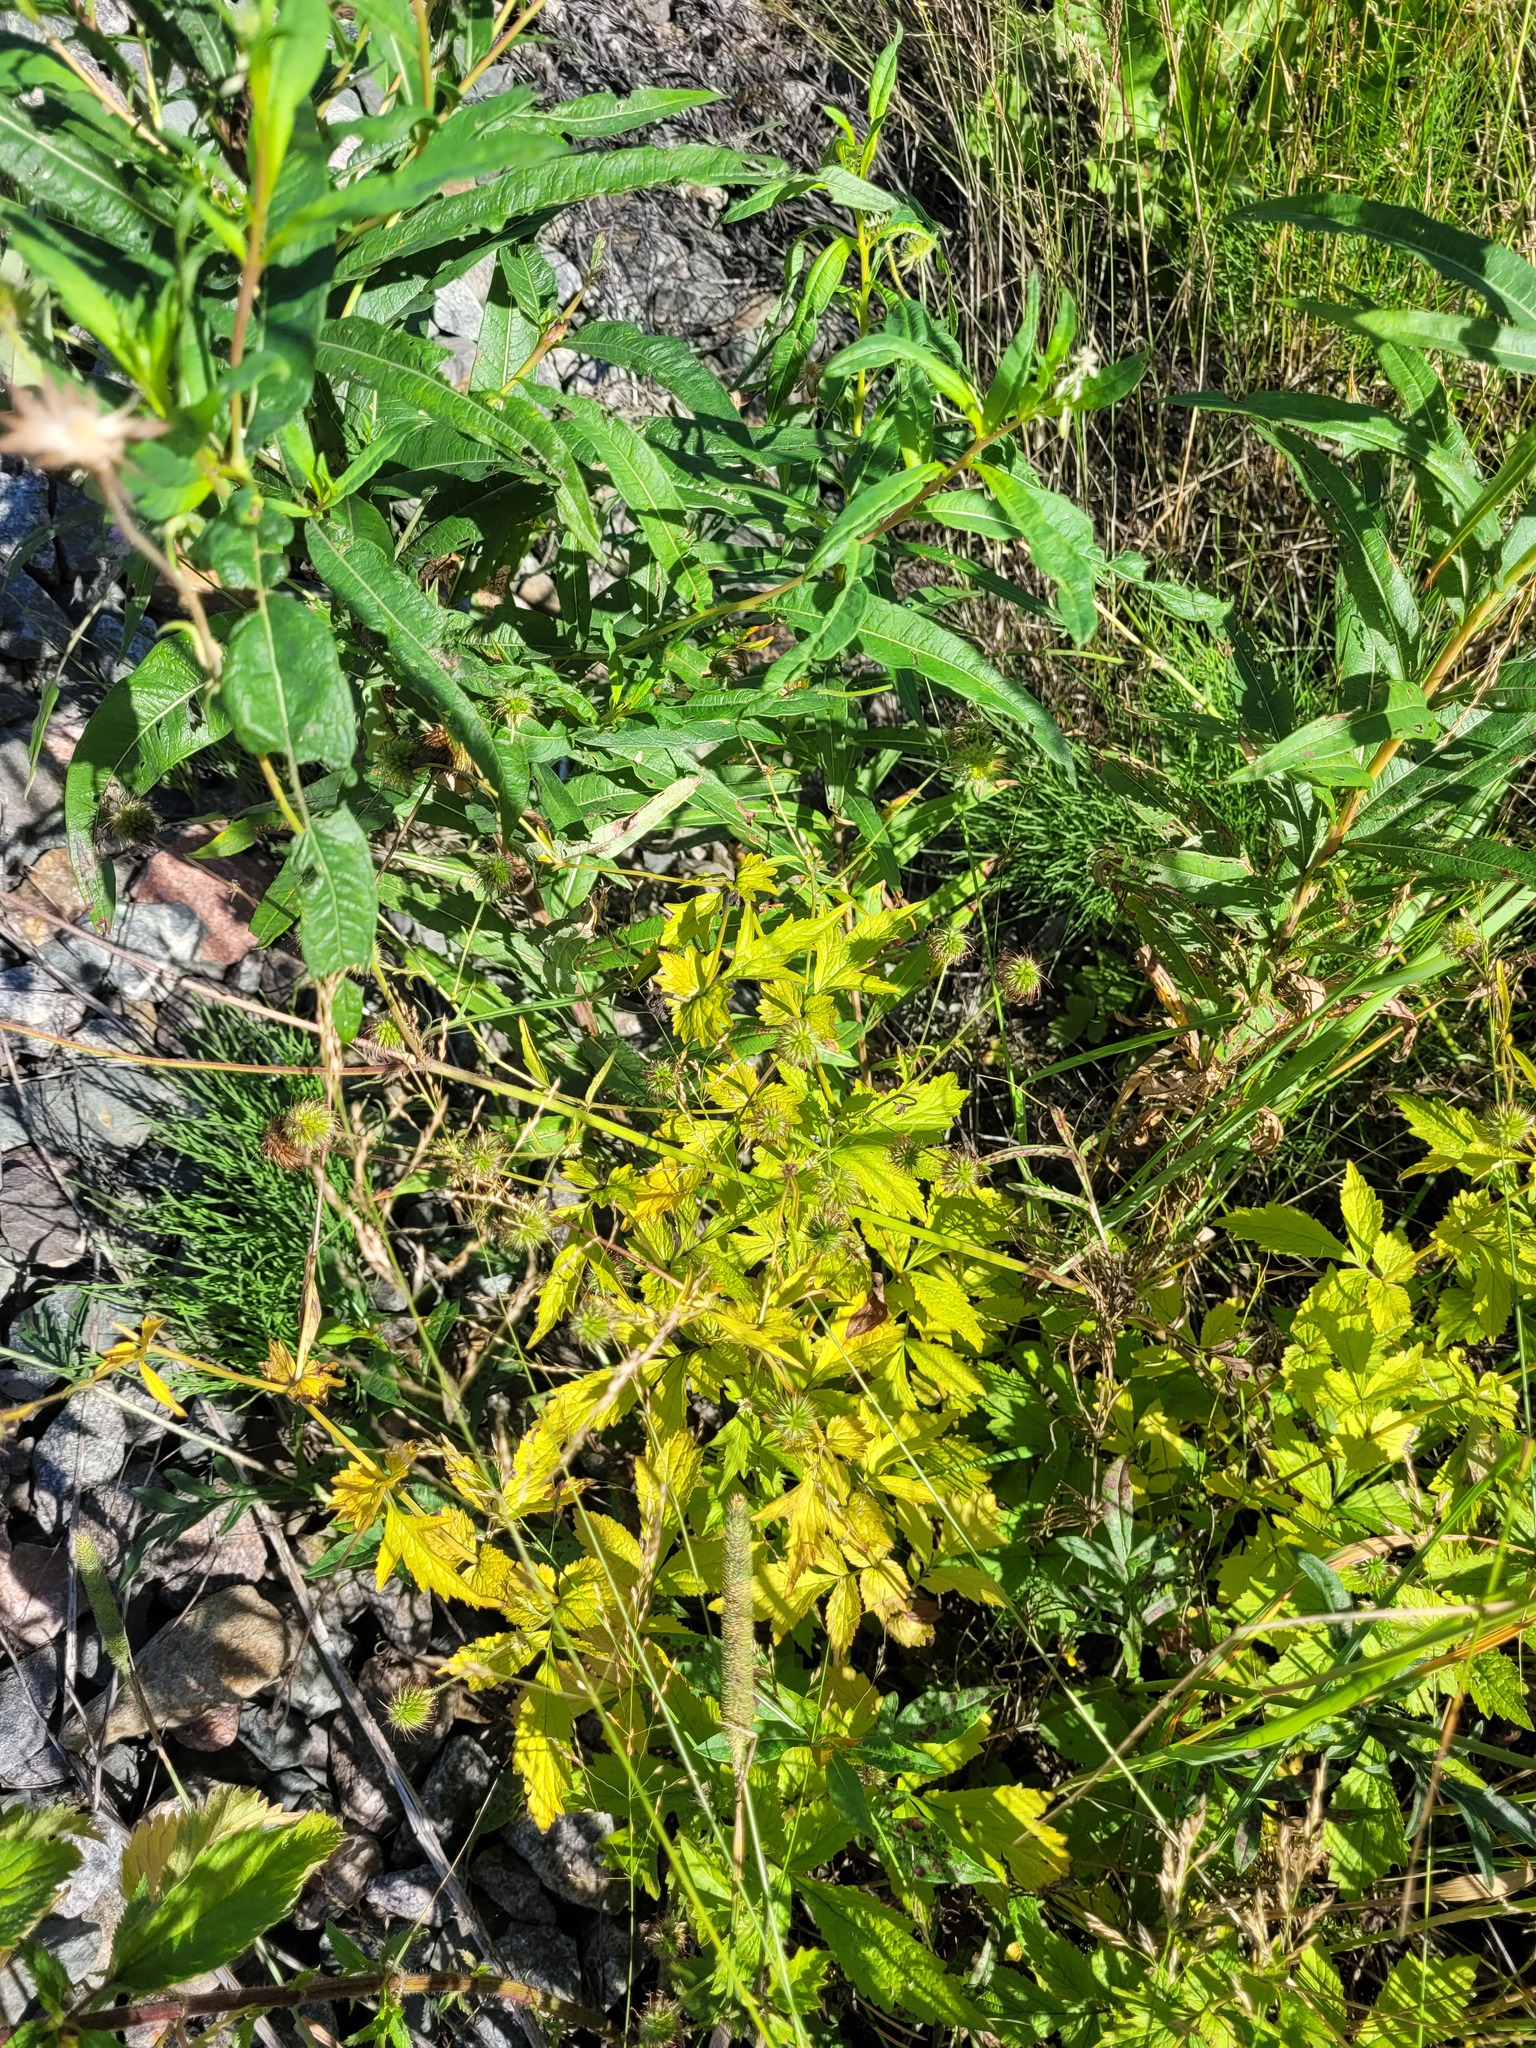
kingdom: Plantae
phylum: Tracheophyta
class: Magnoliopsida
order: Rosales
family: Rosaceae
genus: Geum
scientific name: Geum urbanum
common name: Wood avens
